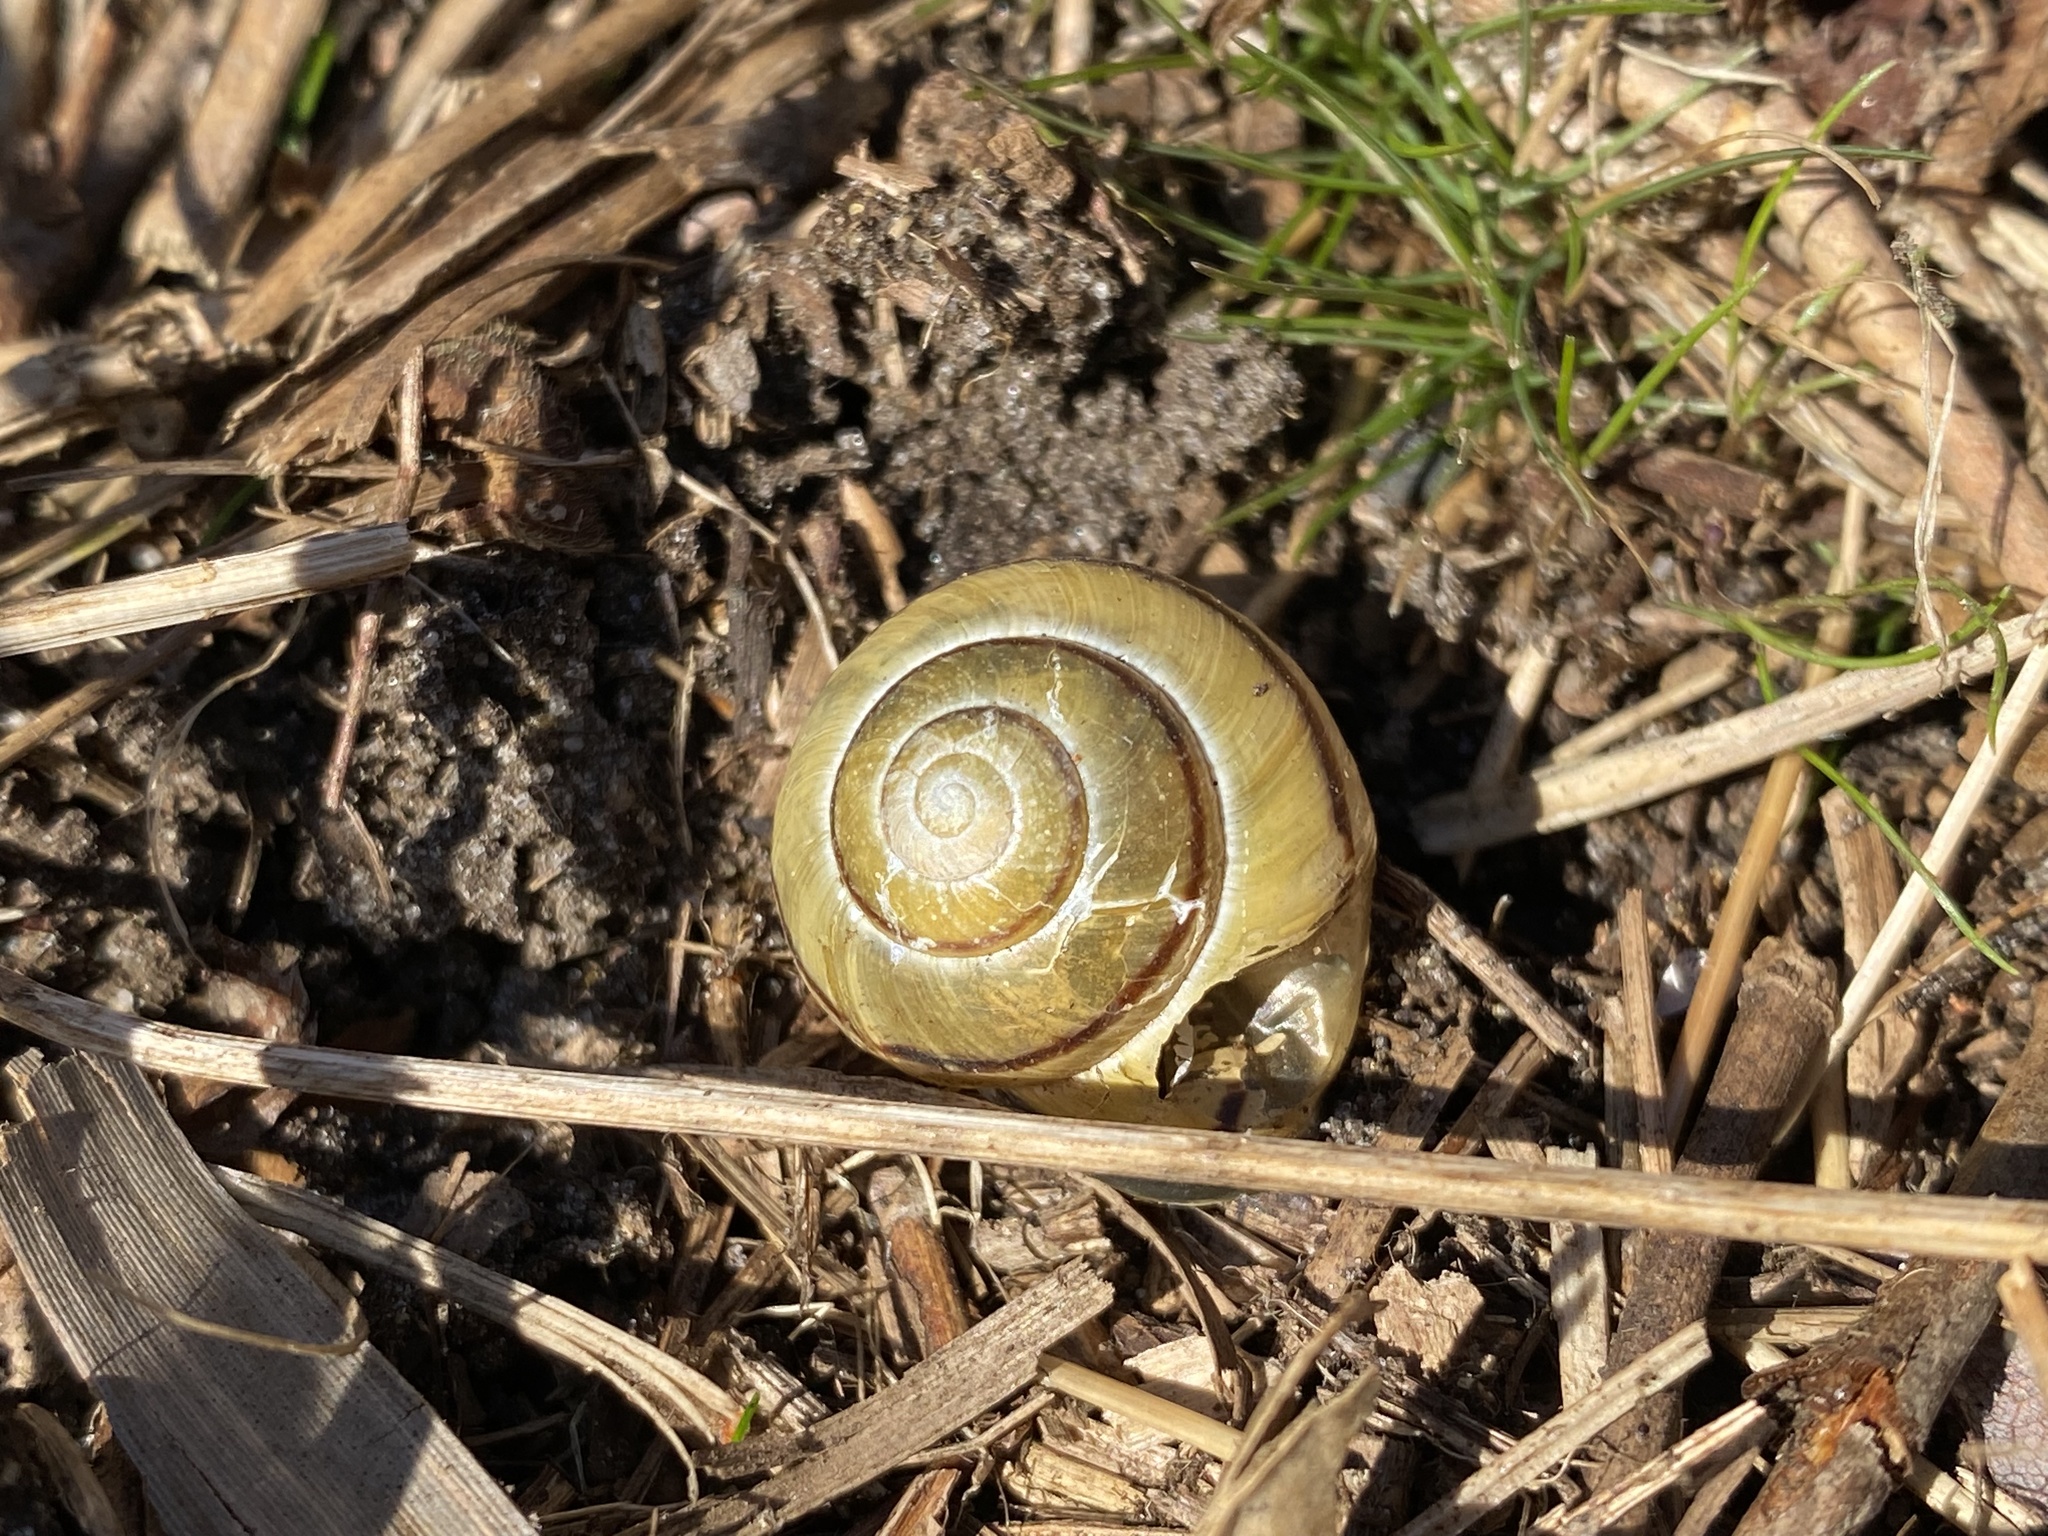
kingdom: Animalia
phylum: Mollusca
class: Gastropoda
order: Stylommatophora
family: Helicidae
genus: Cepaea
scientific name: Cepaea nemoralis
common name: Grovesnail
